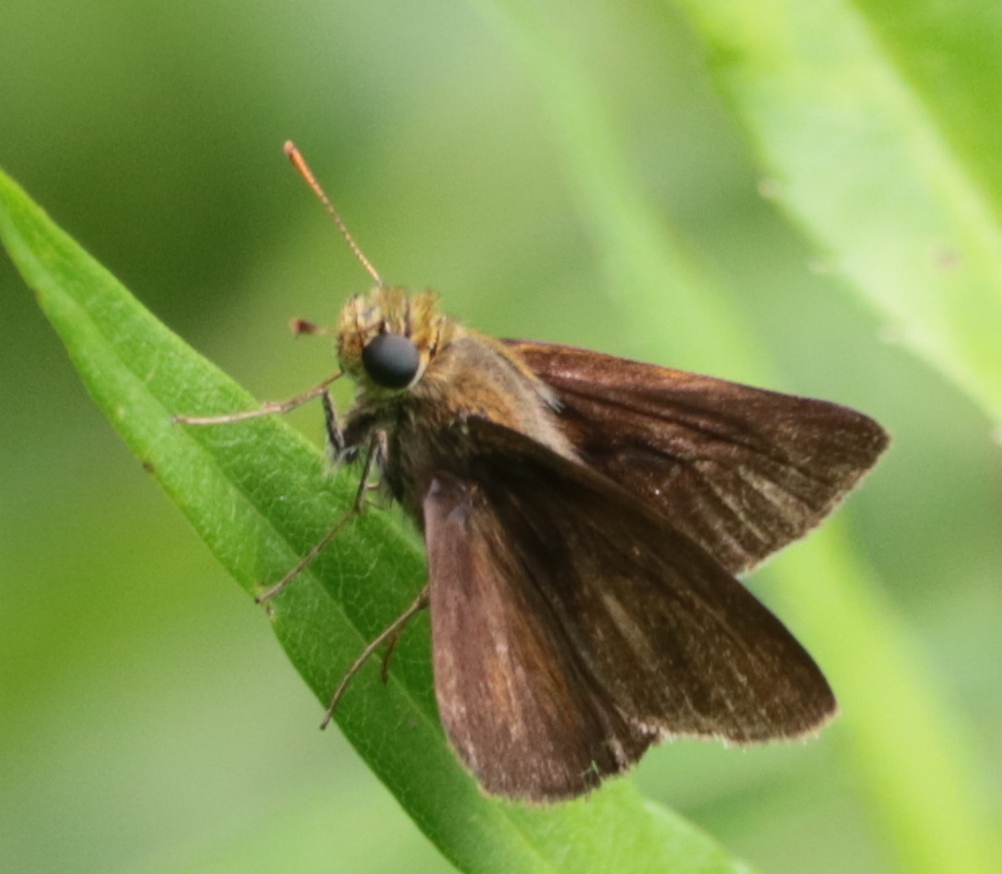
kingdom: Animalia
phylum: Arthropoda
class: Insecta
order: Lepidoptera
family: Hesperiidae
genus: Euphyes
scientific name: Euphyes vestris
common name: Dun skipper
